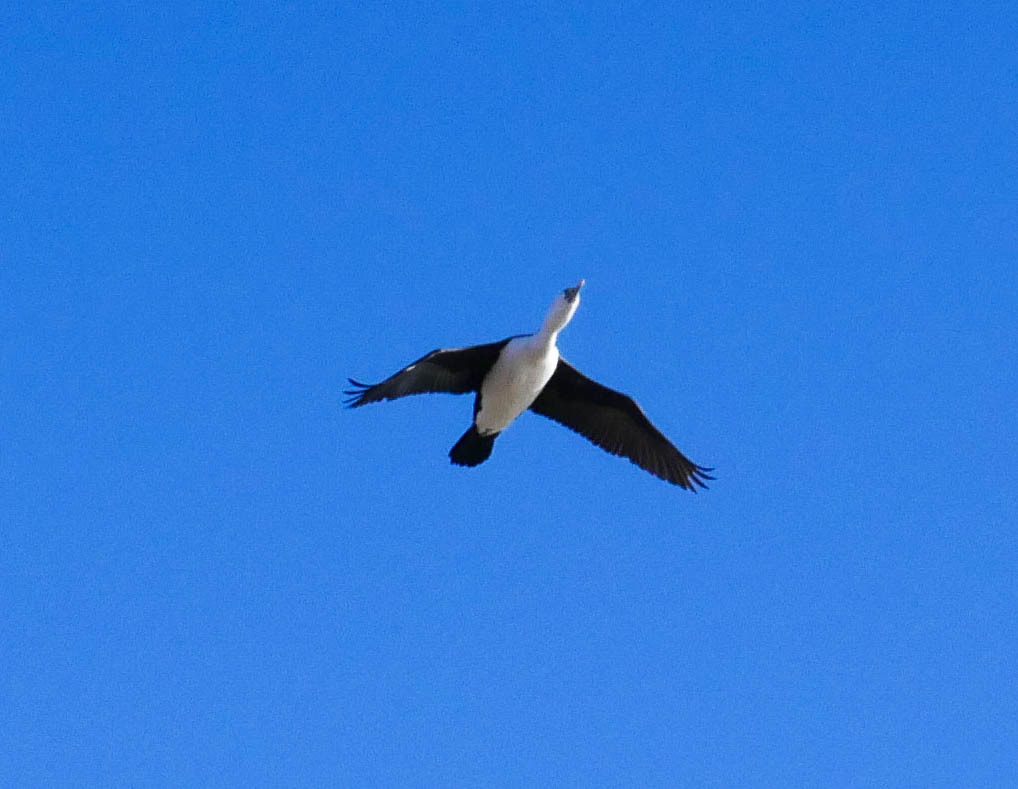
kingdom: Animalia
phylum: Chordata
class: Aves
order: Suliformes
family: Phalacrocoracidae
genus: Phalacrocorax
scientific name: Phalacrocorax varius
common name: Pied cormorant
